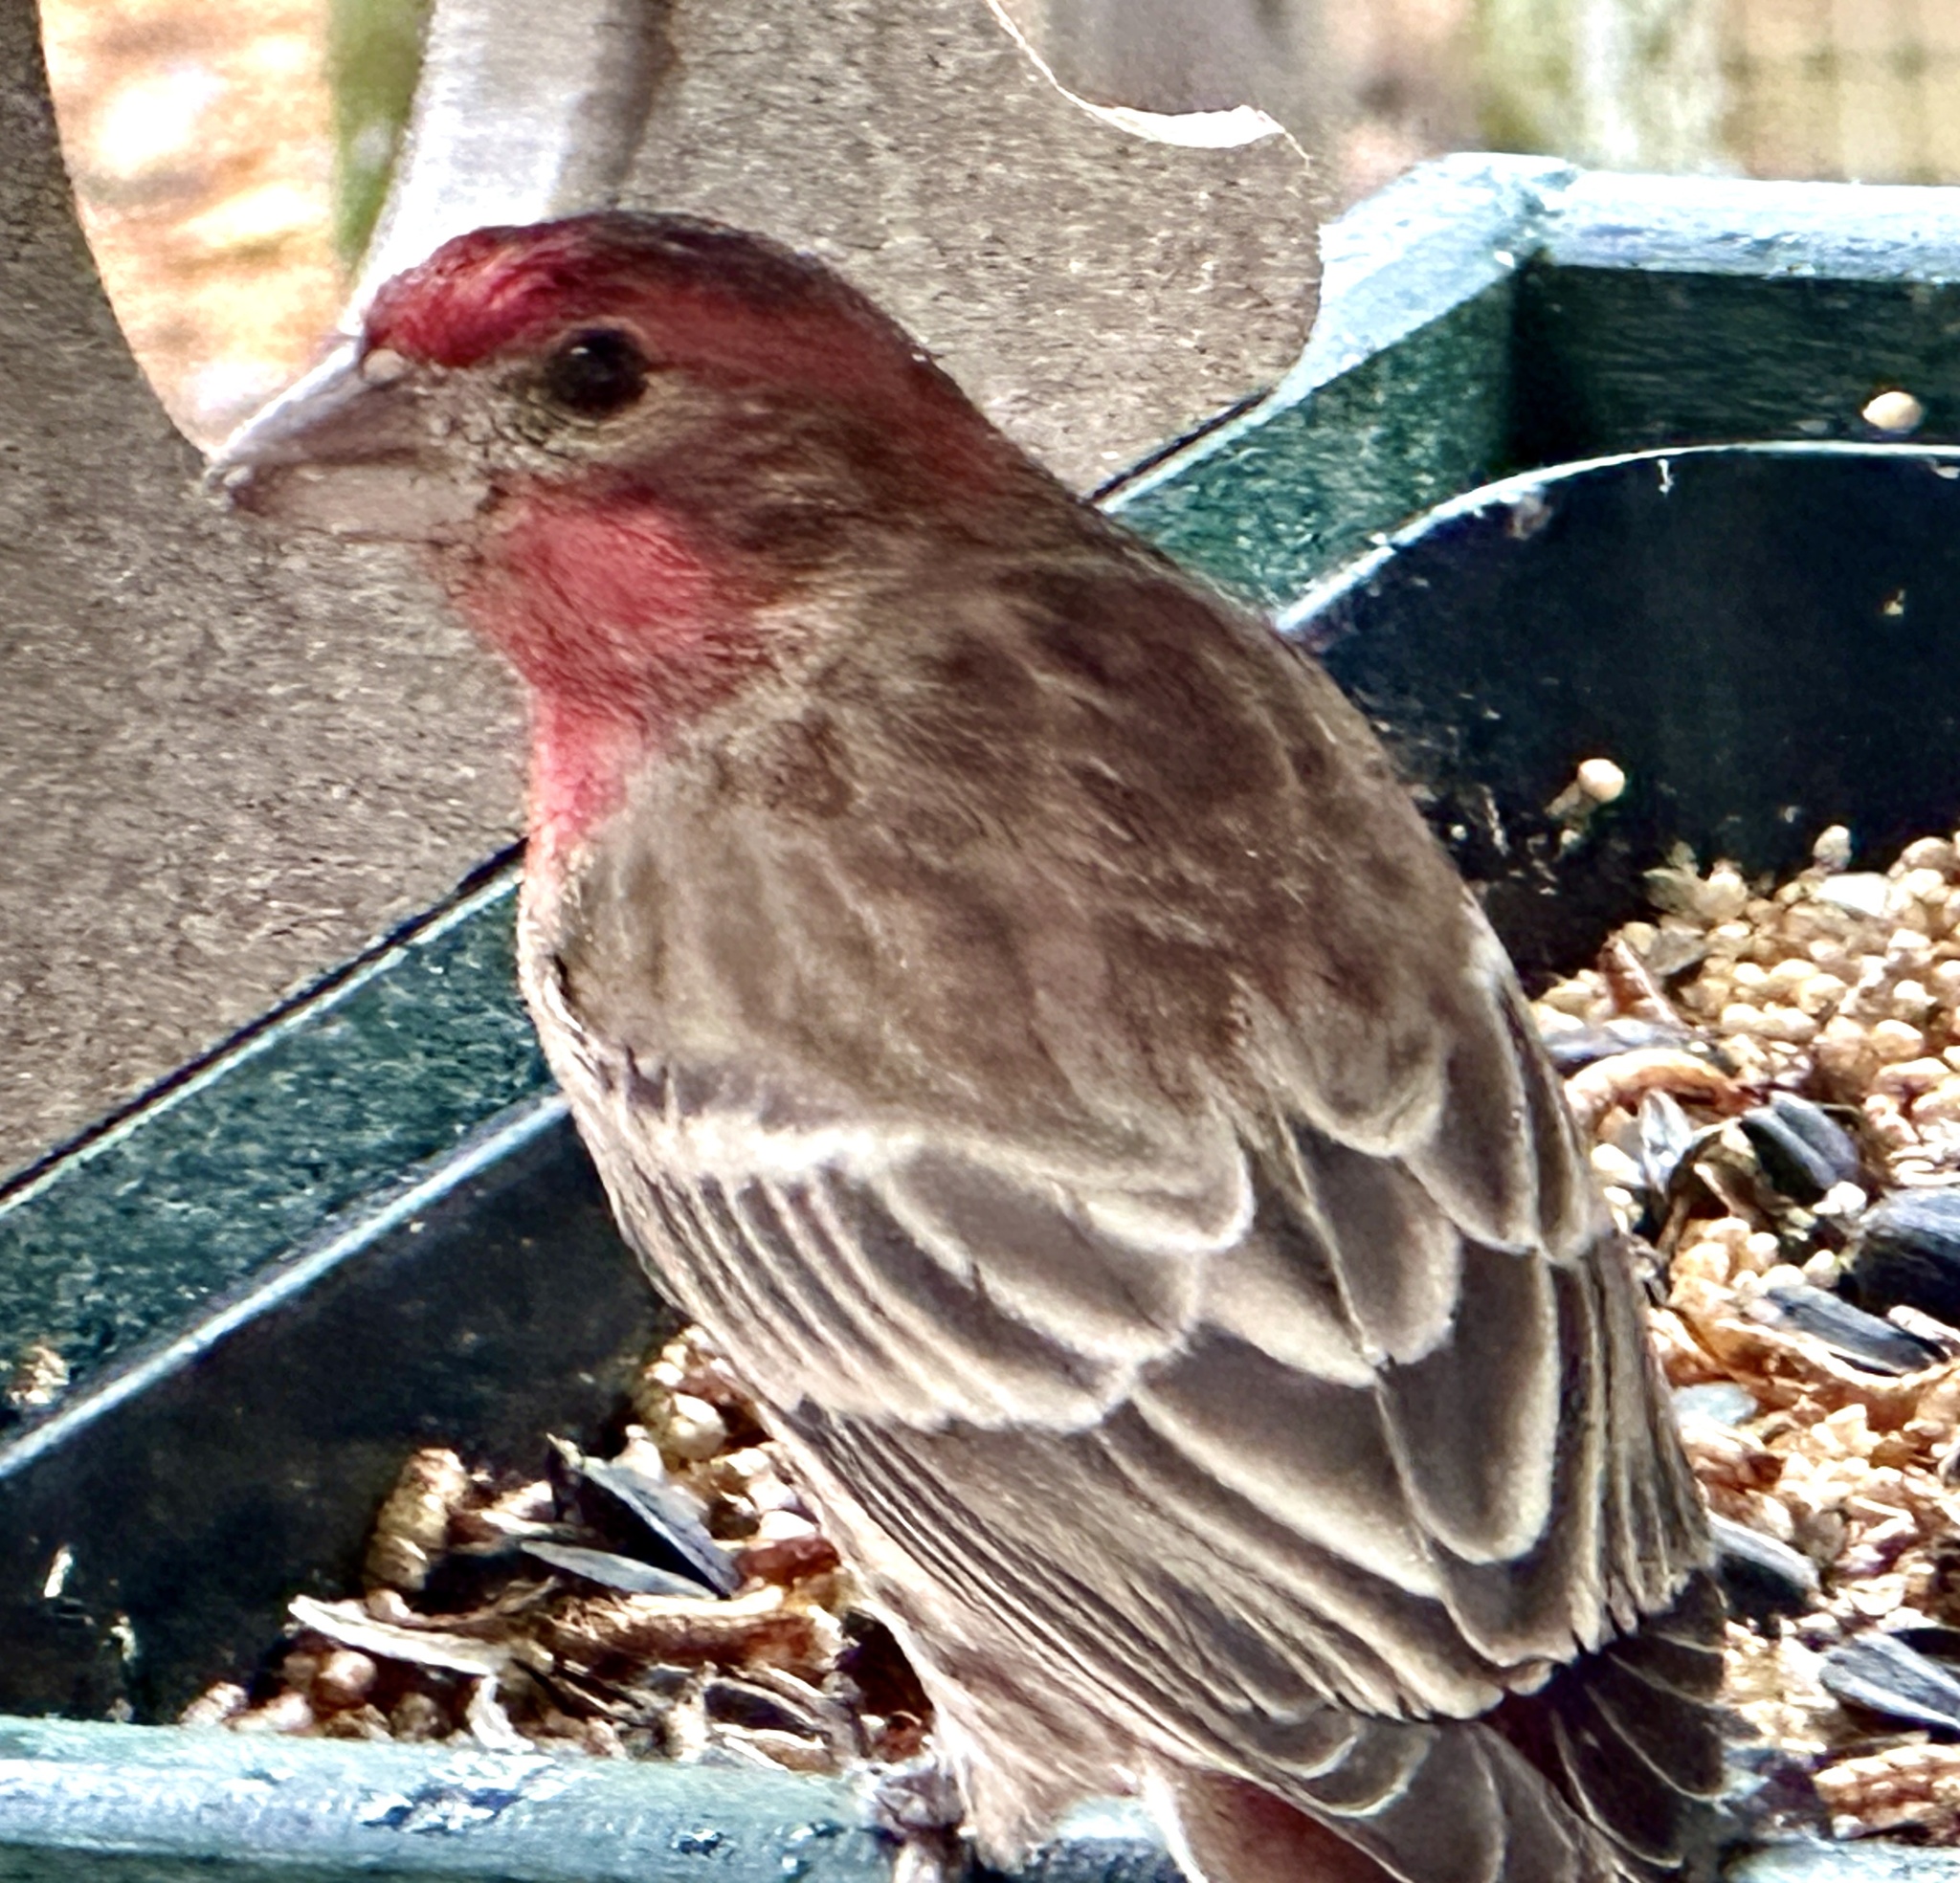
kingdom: Animalia
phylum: Chordata
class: Aves
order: Passeriformes
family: Fringillidae
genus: Haemorhous
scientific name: Haemorhous mexicanus
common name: House finch
